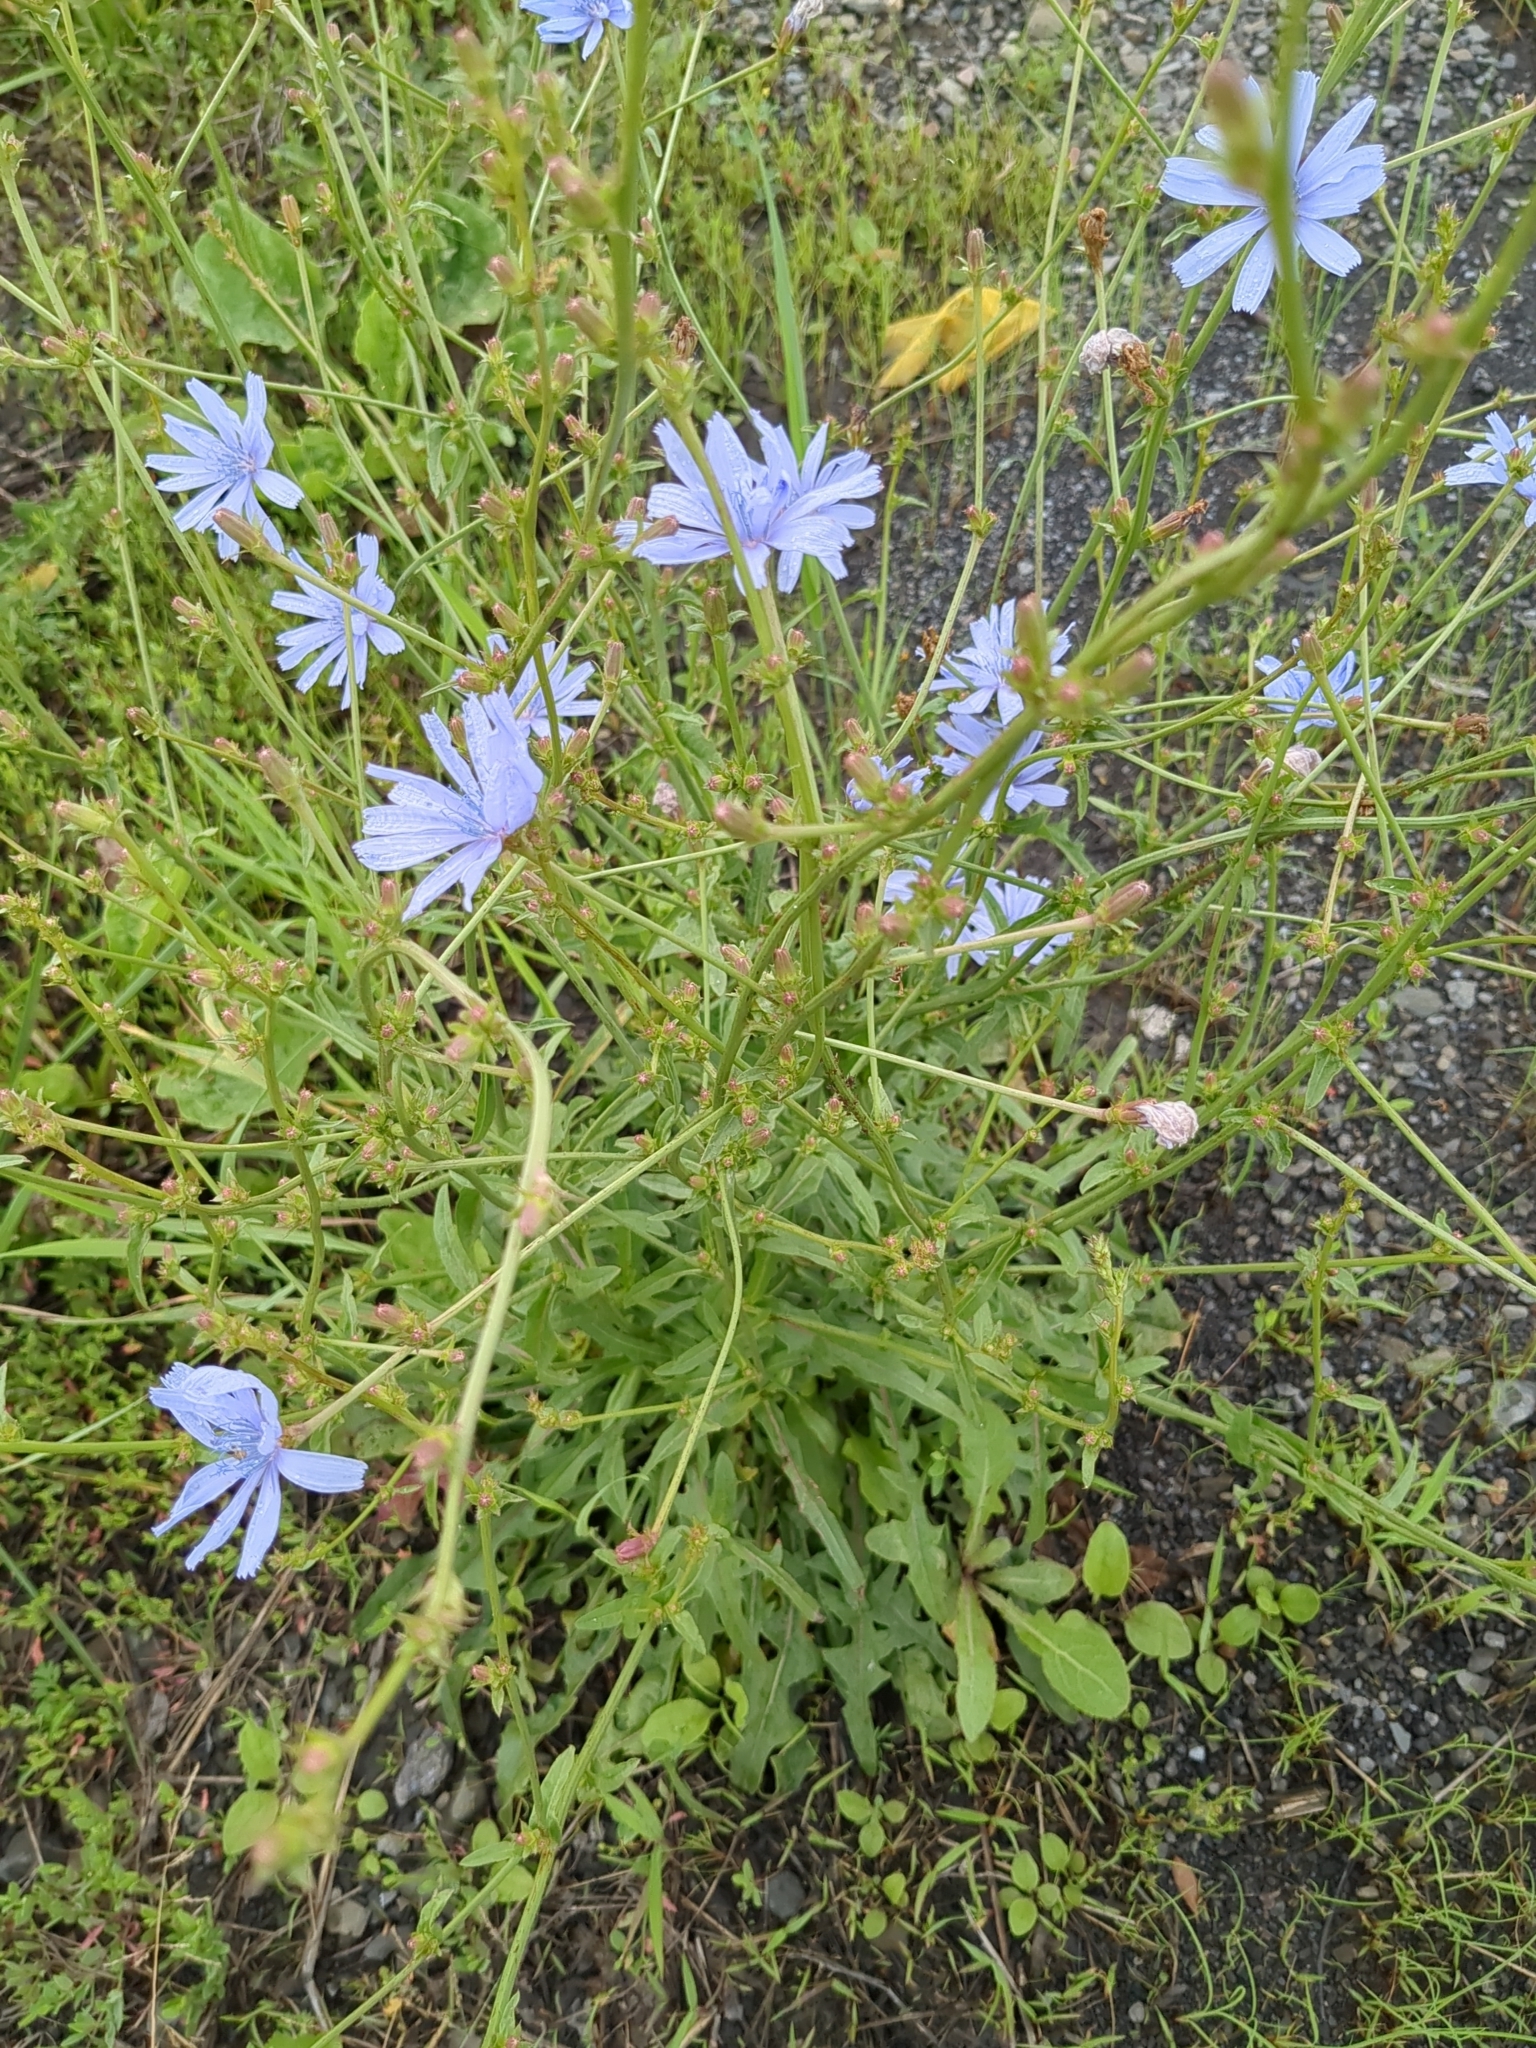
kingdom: Plantae
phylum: Tracheophyta
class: Magnoliopsida
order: Asterales
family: Asteraceae
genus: Cichorium
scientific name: Cichorium intybus
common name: Chicory
